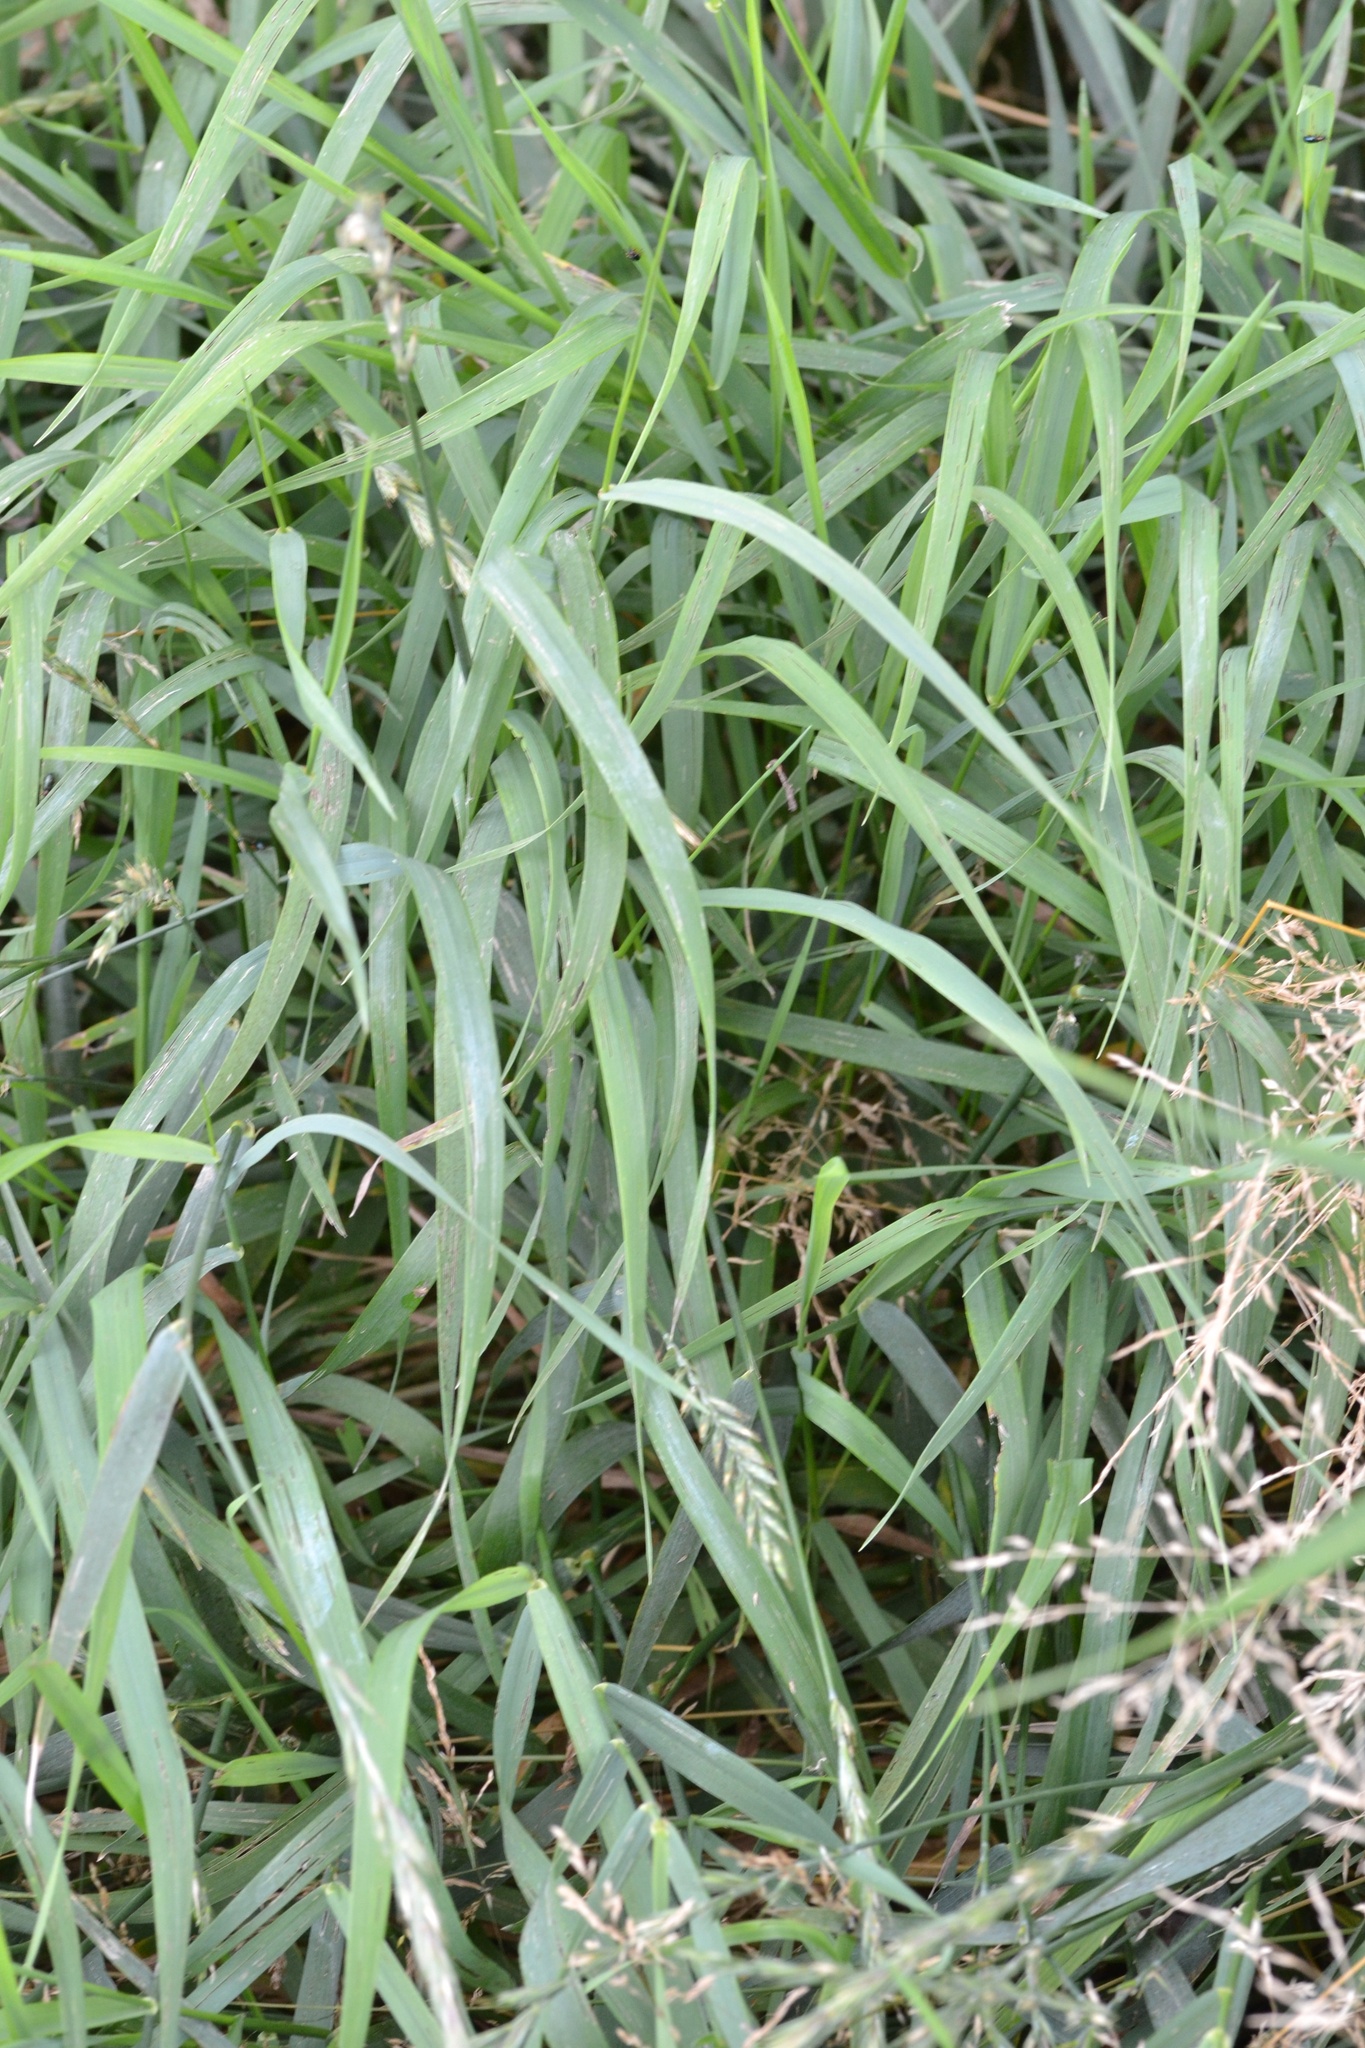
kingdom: Plantae
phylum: Tracheophyta
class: Liliopsida
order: Poales
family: Poaceae
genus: Elymus
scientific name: Elymus repens
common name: Quackgrass
